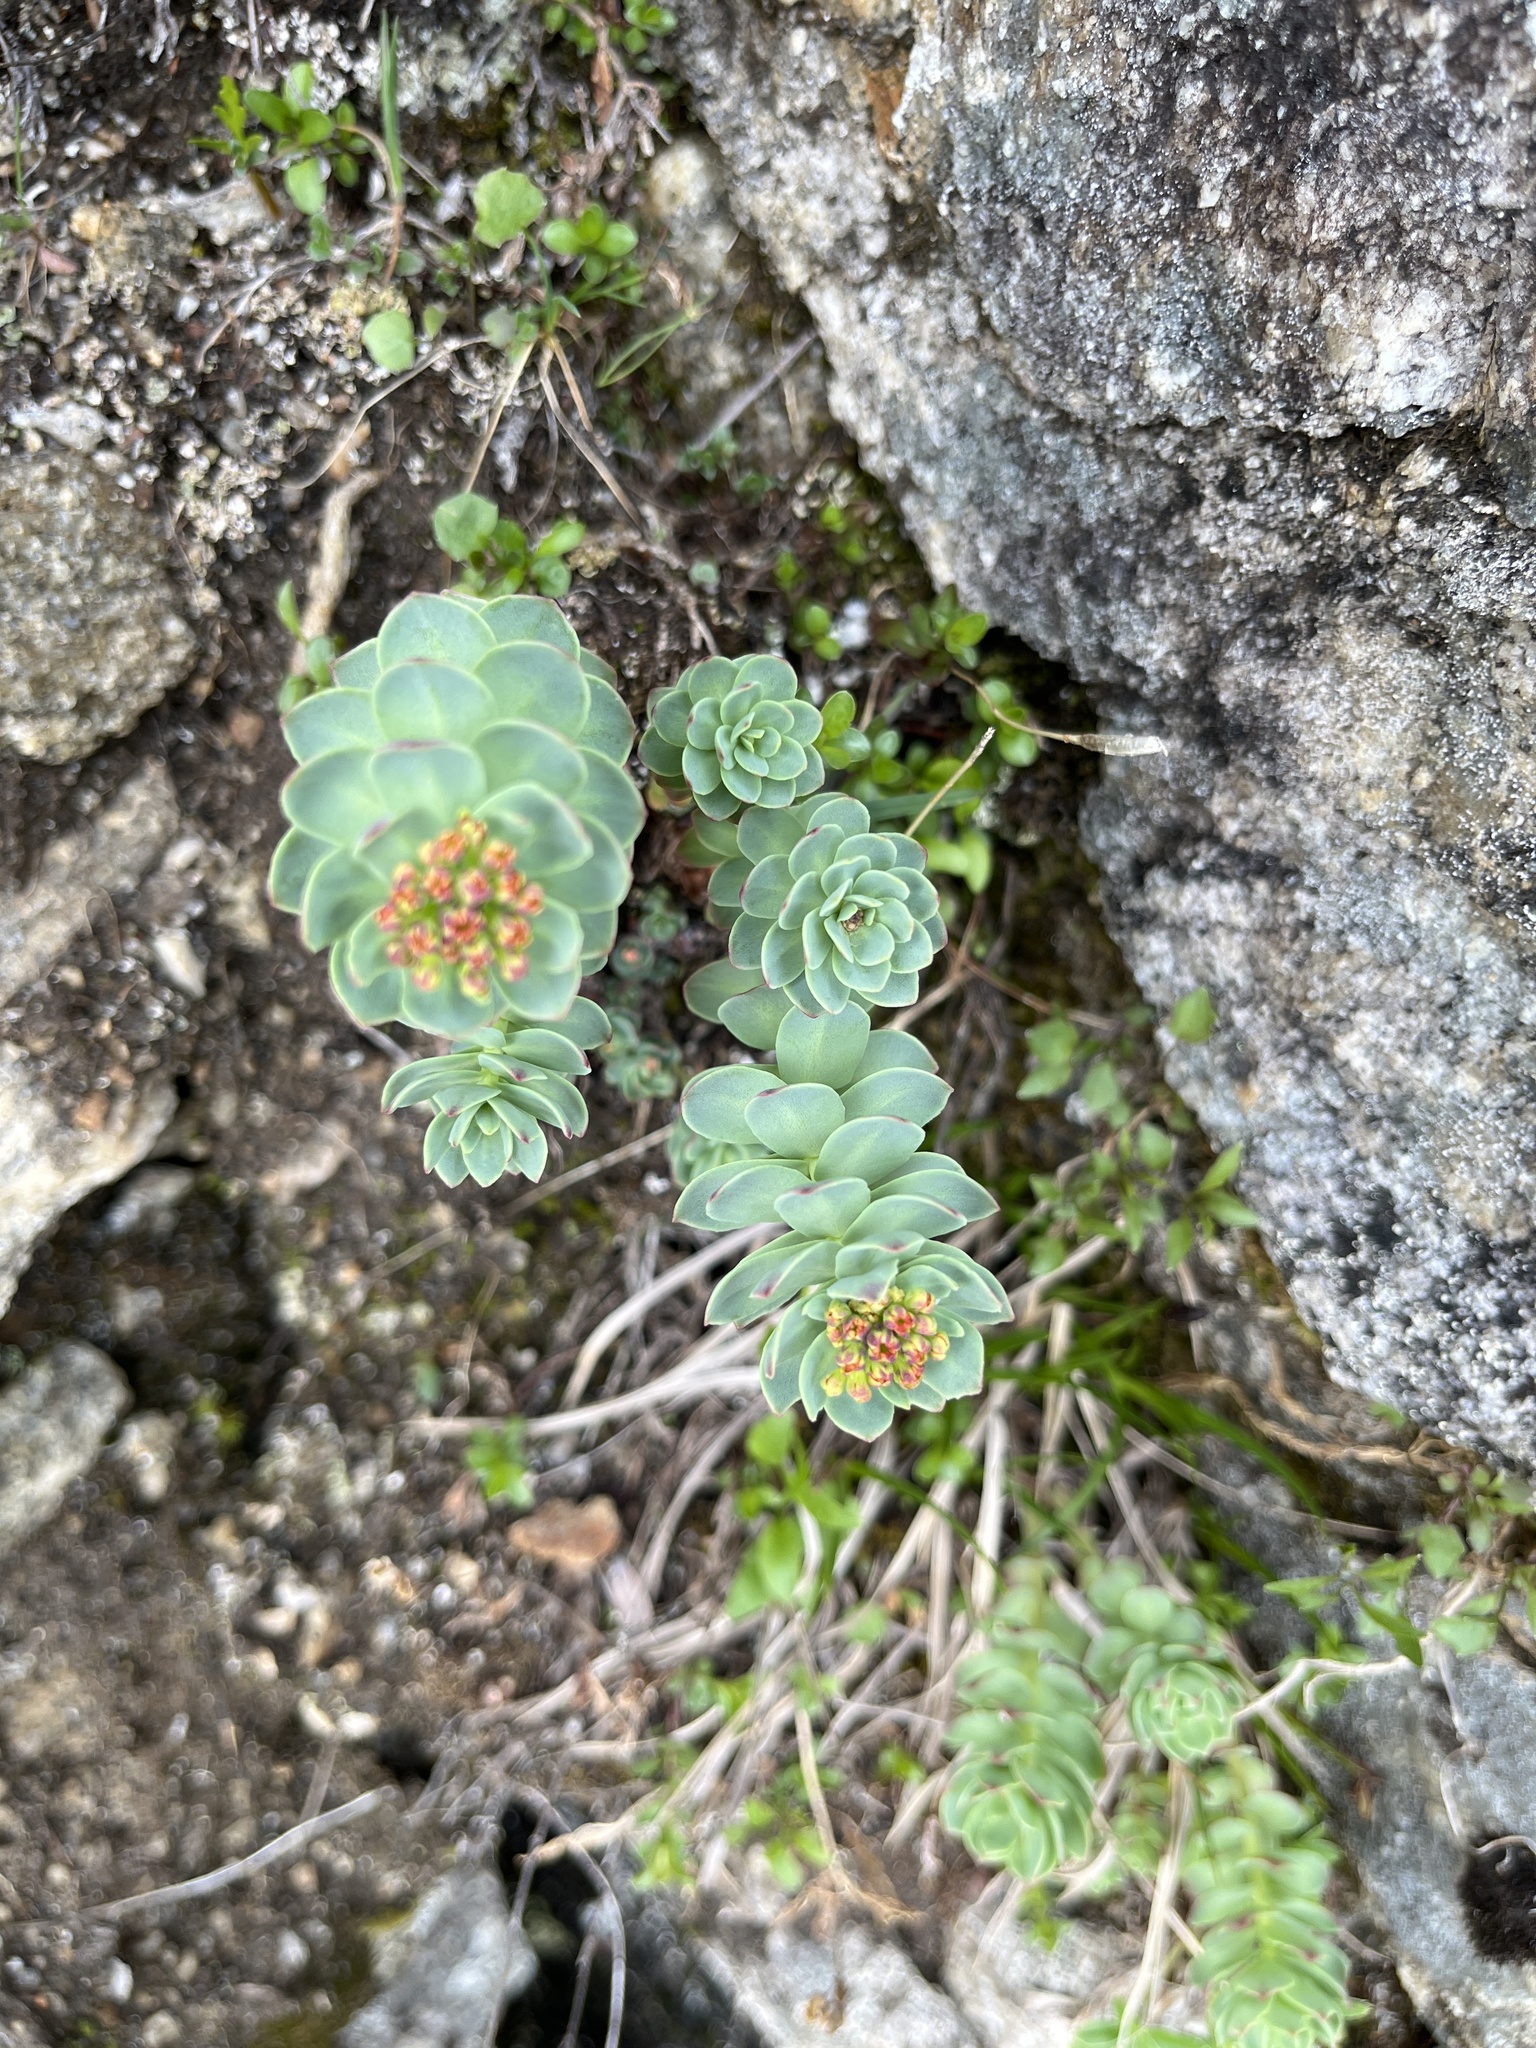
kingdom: Plantae
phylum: Tracheophyta
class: Magnoliopsida
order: Saxifragales
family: Crassulaceae
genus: Rhodiola
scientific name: Rhodiola rosea
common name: Roseroot
